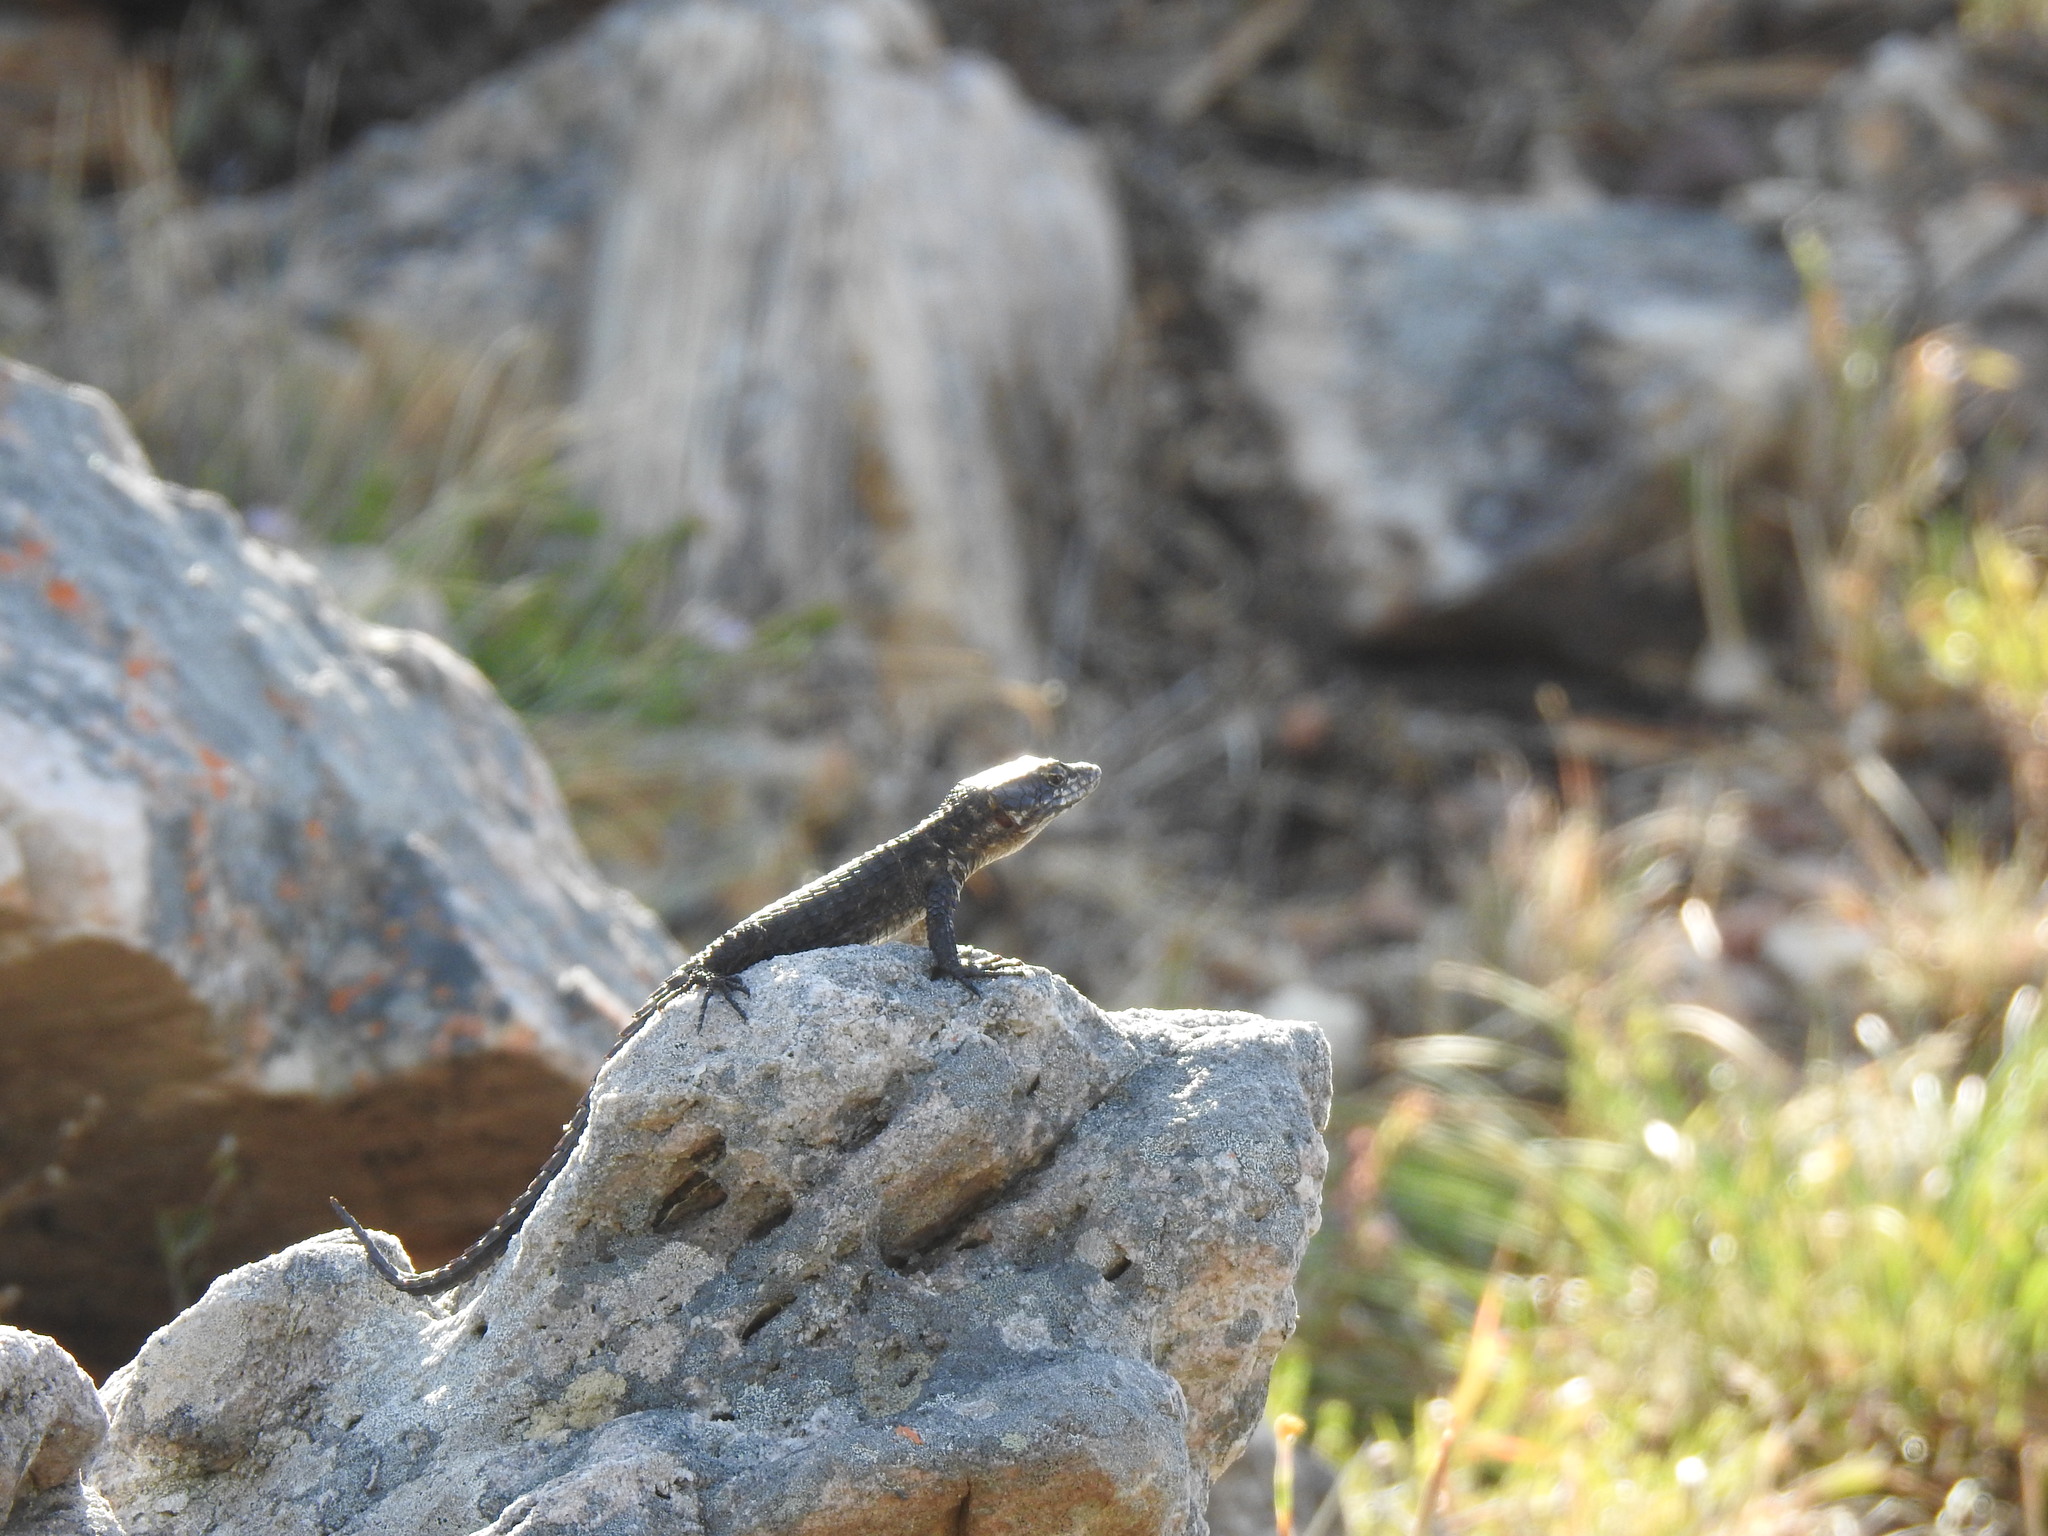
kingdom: Animalia
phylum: Chordata
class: Squamata
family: Cordylidae
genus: Cordylus
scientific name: Cordylus niger
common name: Black girdled lizard
